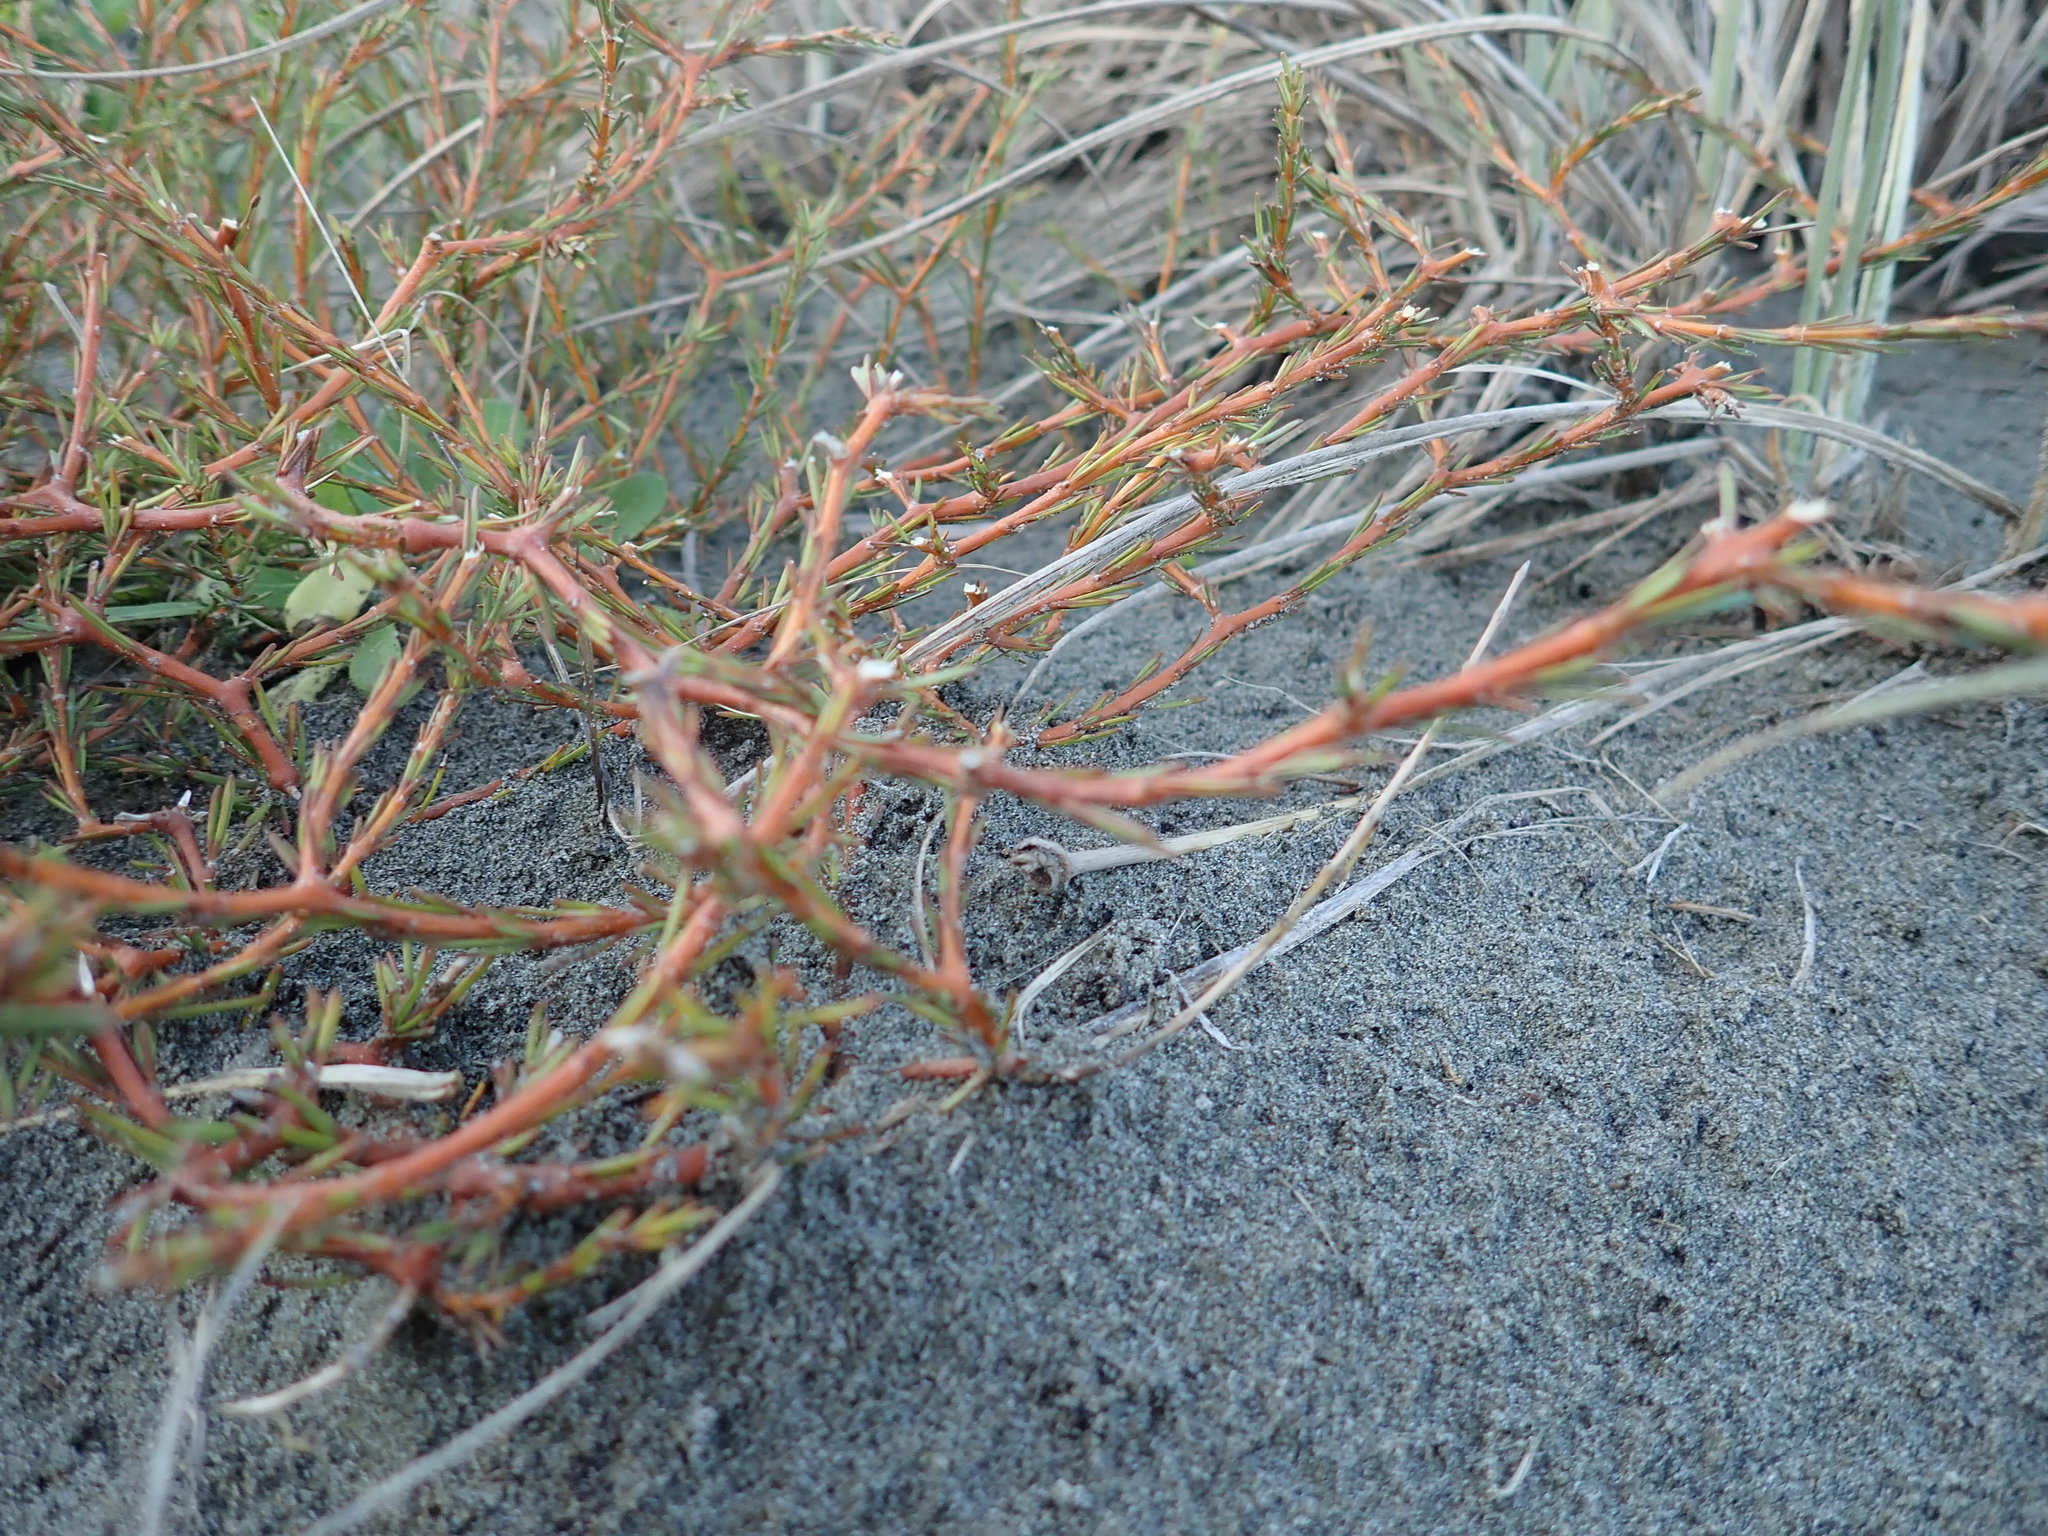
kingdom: Plantae
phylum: Tracheophyta
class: Magnoliopsida
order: Gentianales
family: Rubiaceae
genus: Coprosma
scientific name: Coprosma acerosa
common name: Sand coprosma
